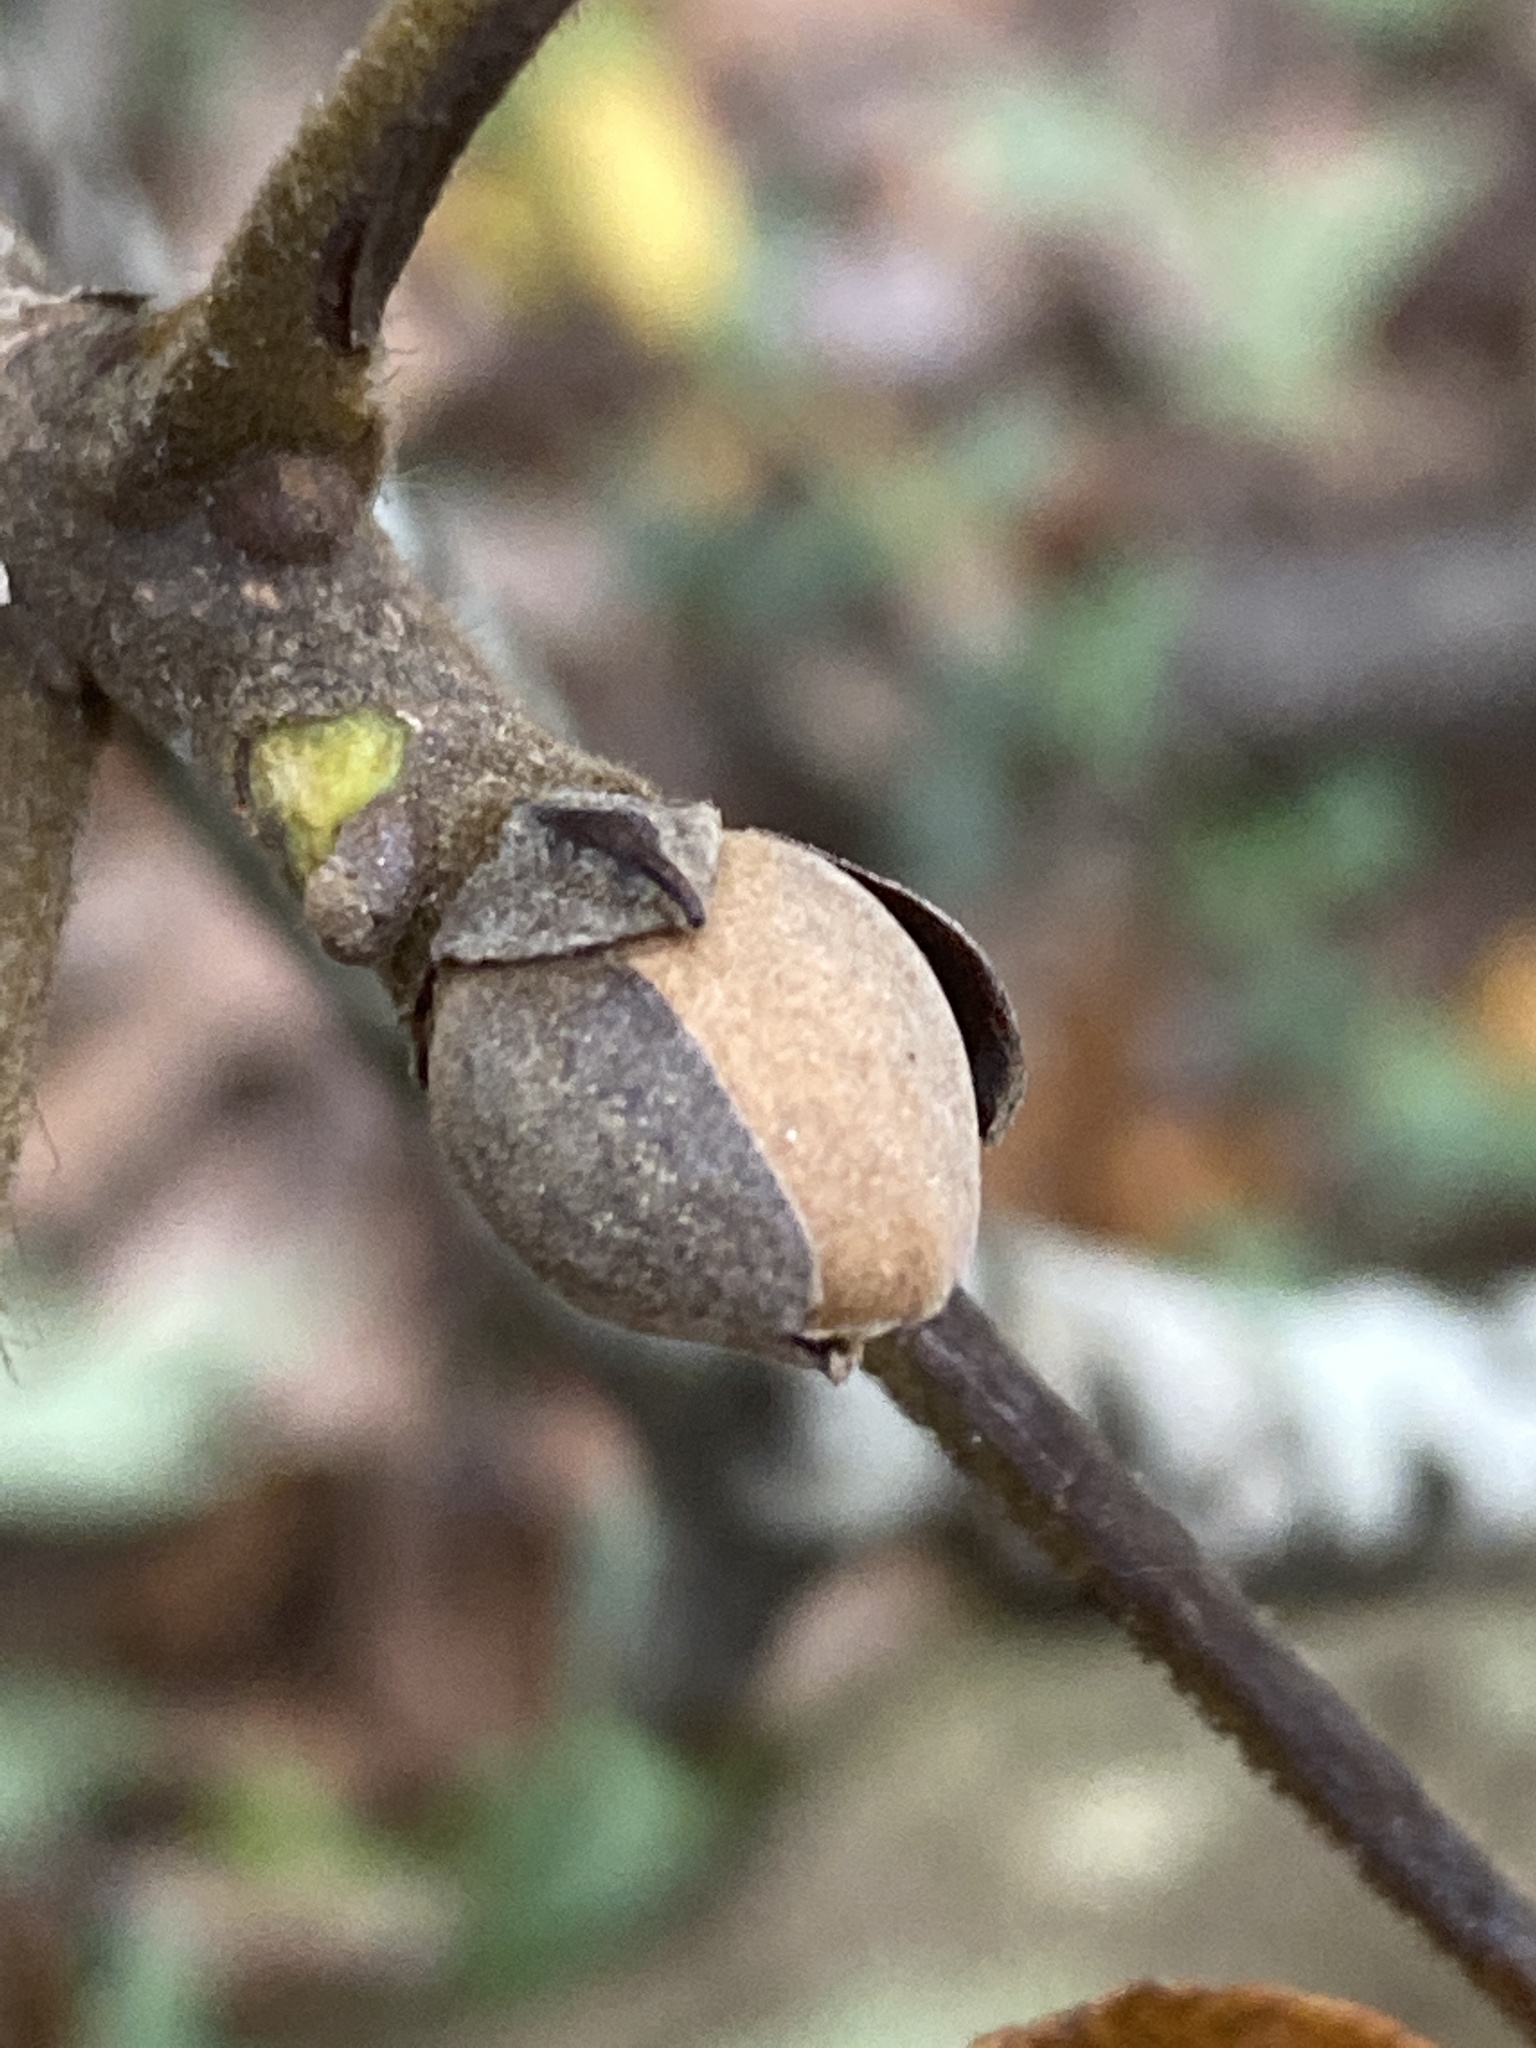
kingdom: Plantae
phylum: Tracheophyta
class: Magnoliopsida
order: Fagales
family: Juglandaceae
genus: Carya
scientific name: Carya alba
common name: Mockernut hickory
